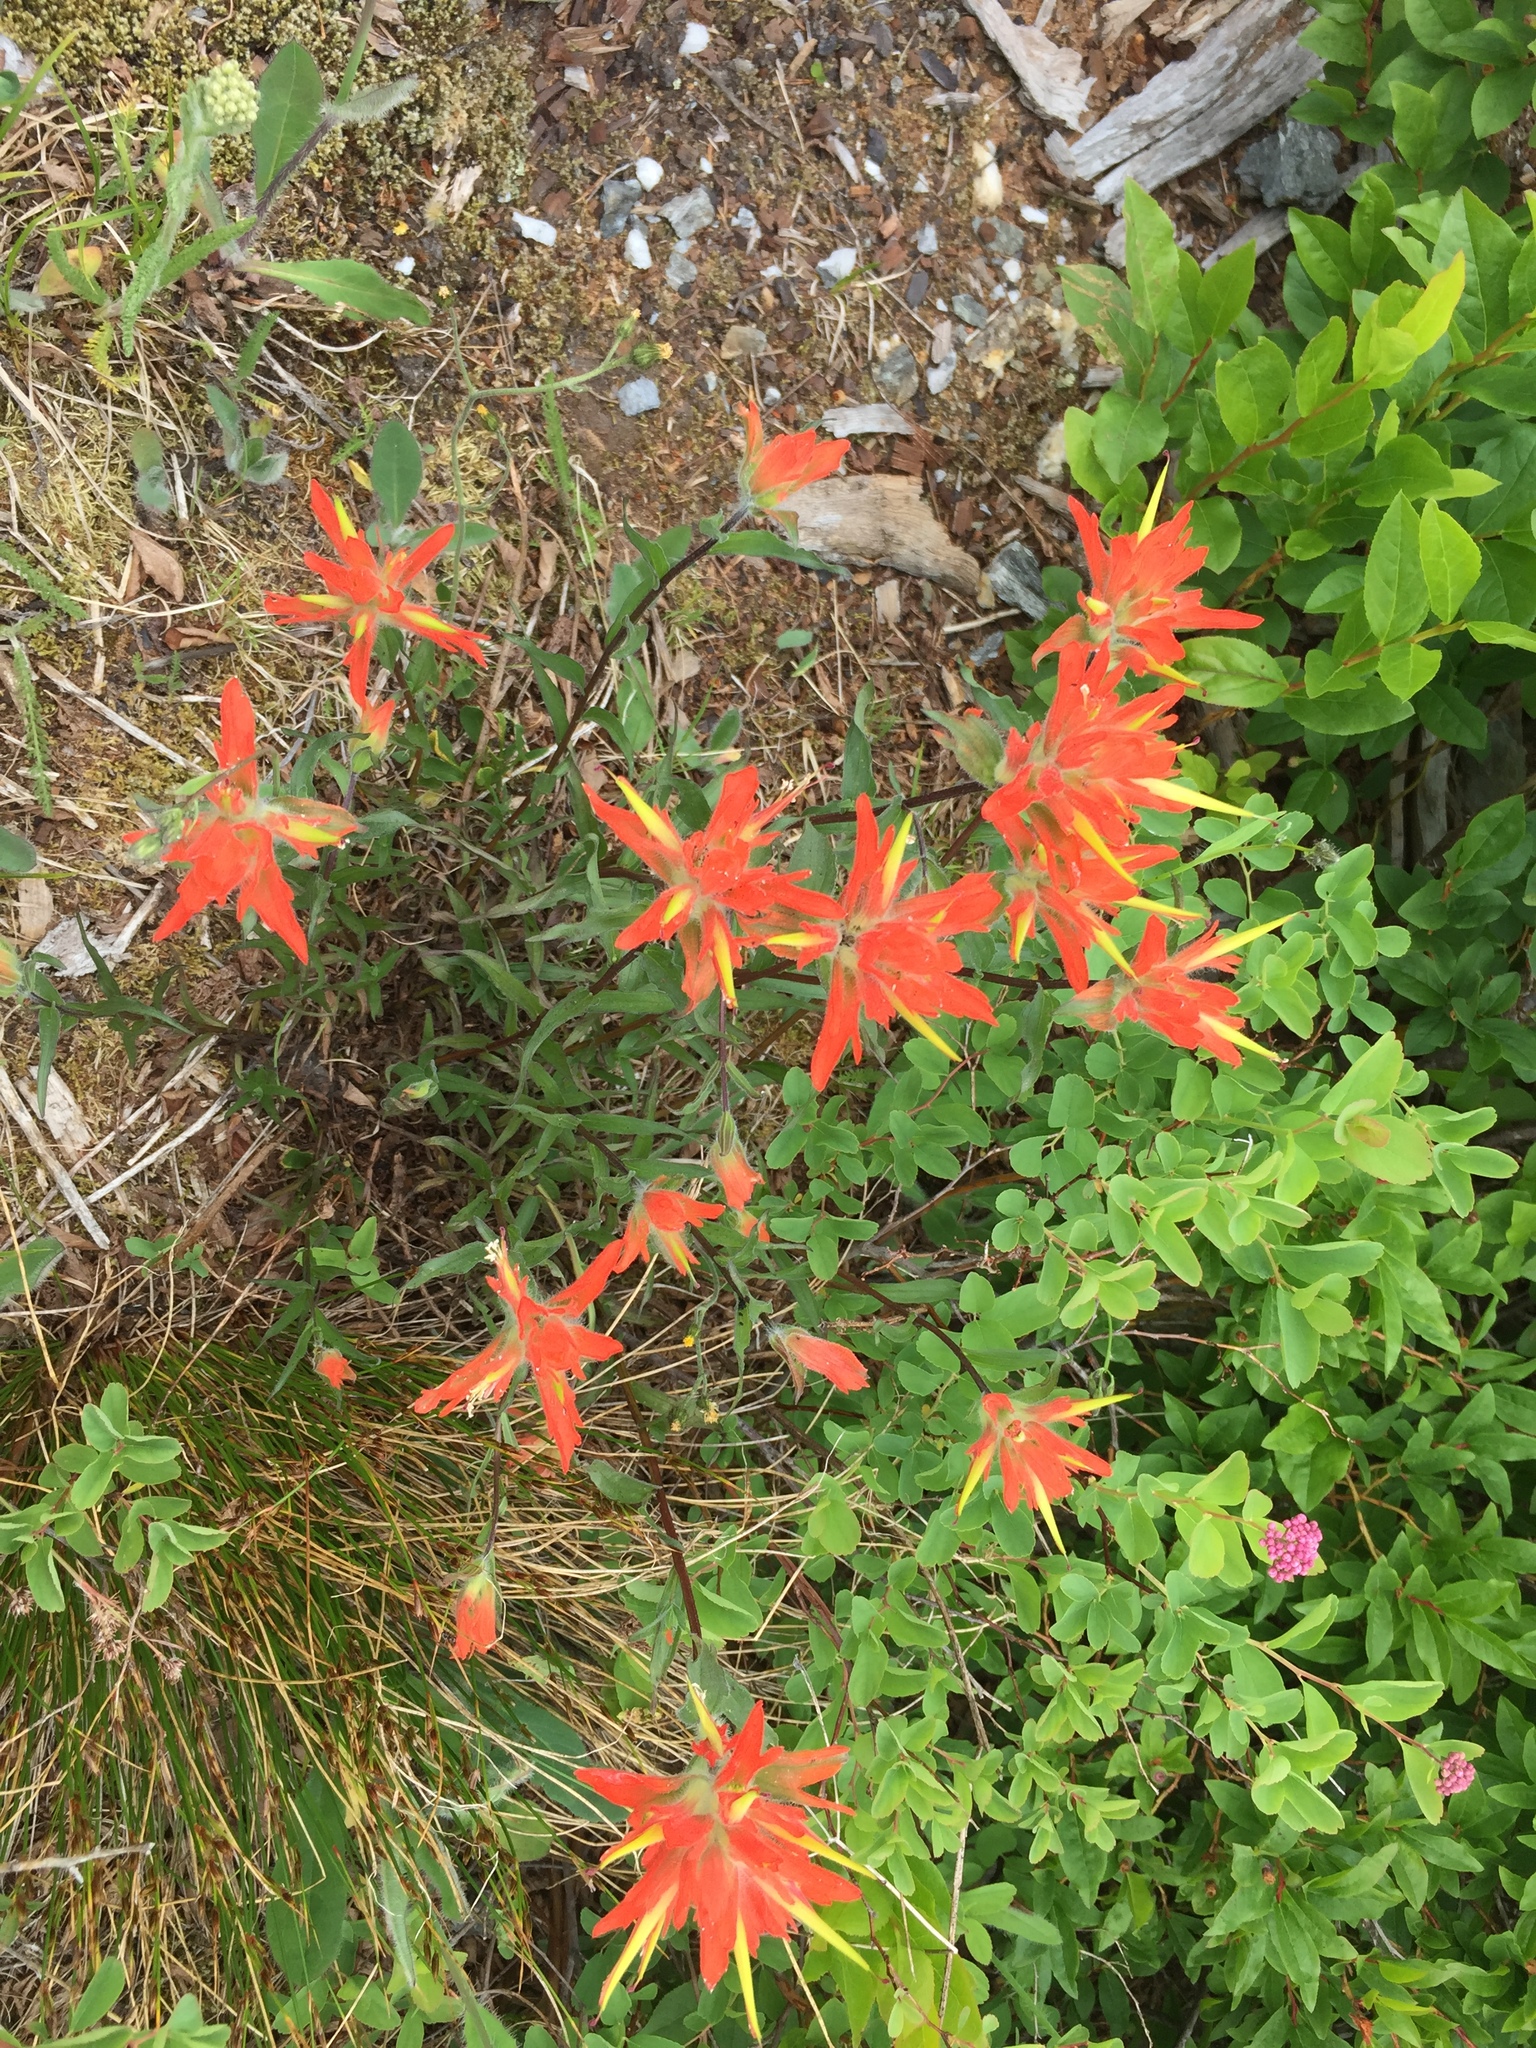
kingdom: Plantae
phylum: Tracheophyta
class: Magnoliopsida
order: Lamiales
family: Orobanchaceae
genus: Castilleja
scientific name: Castilleja miniata
